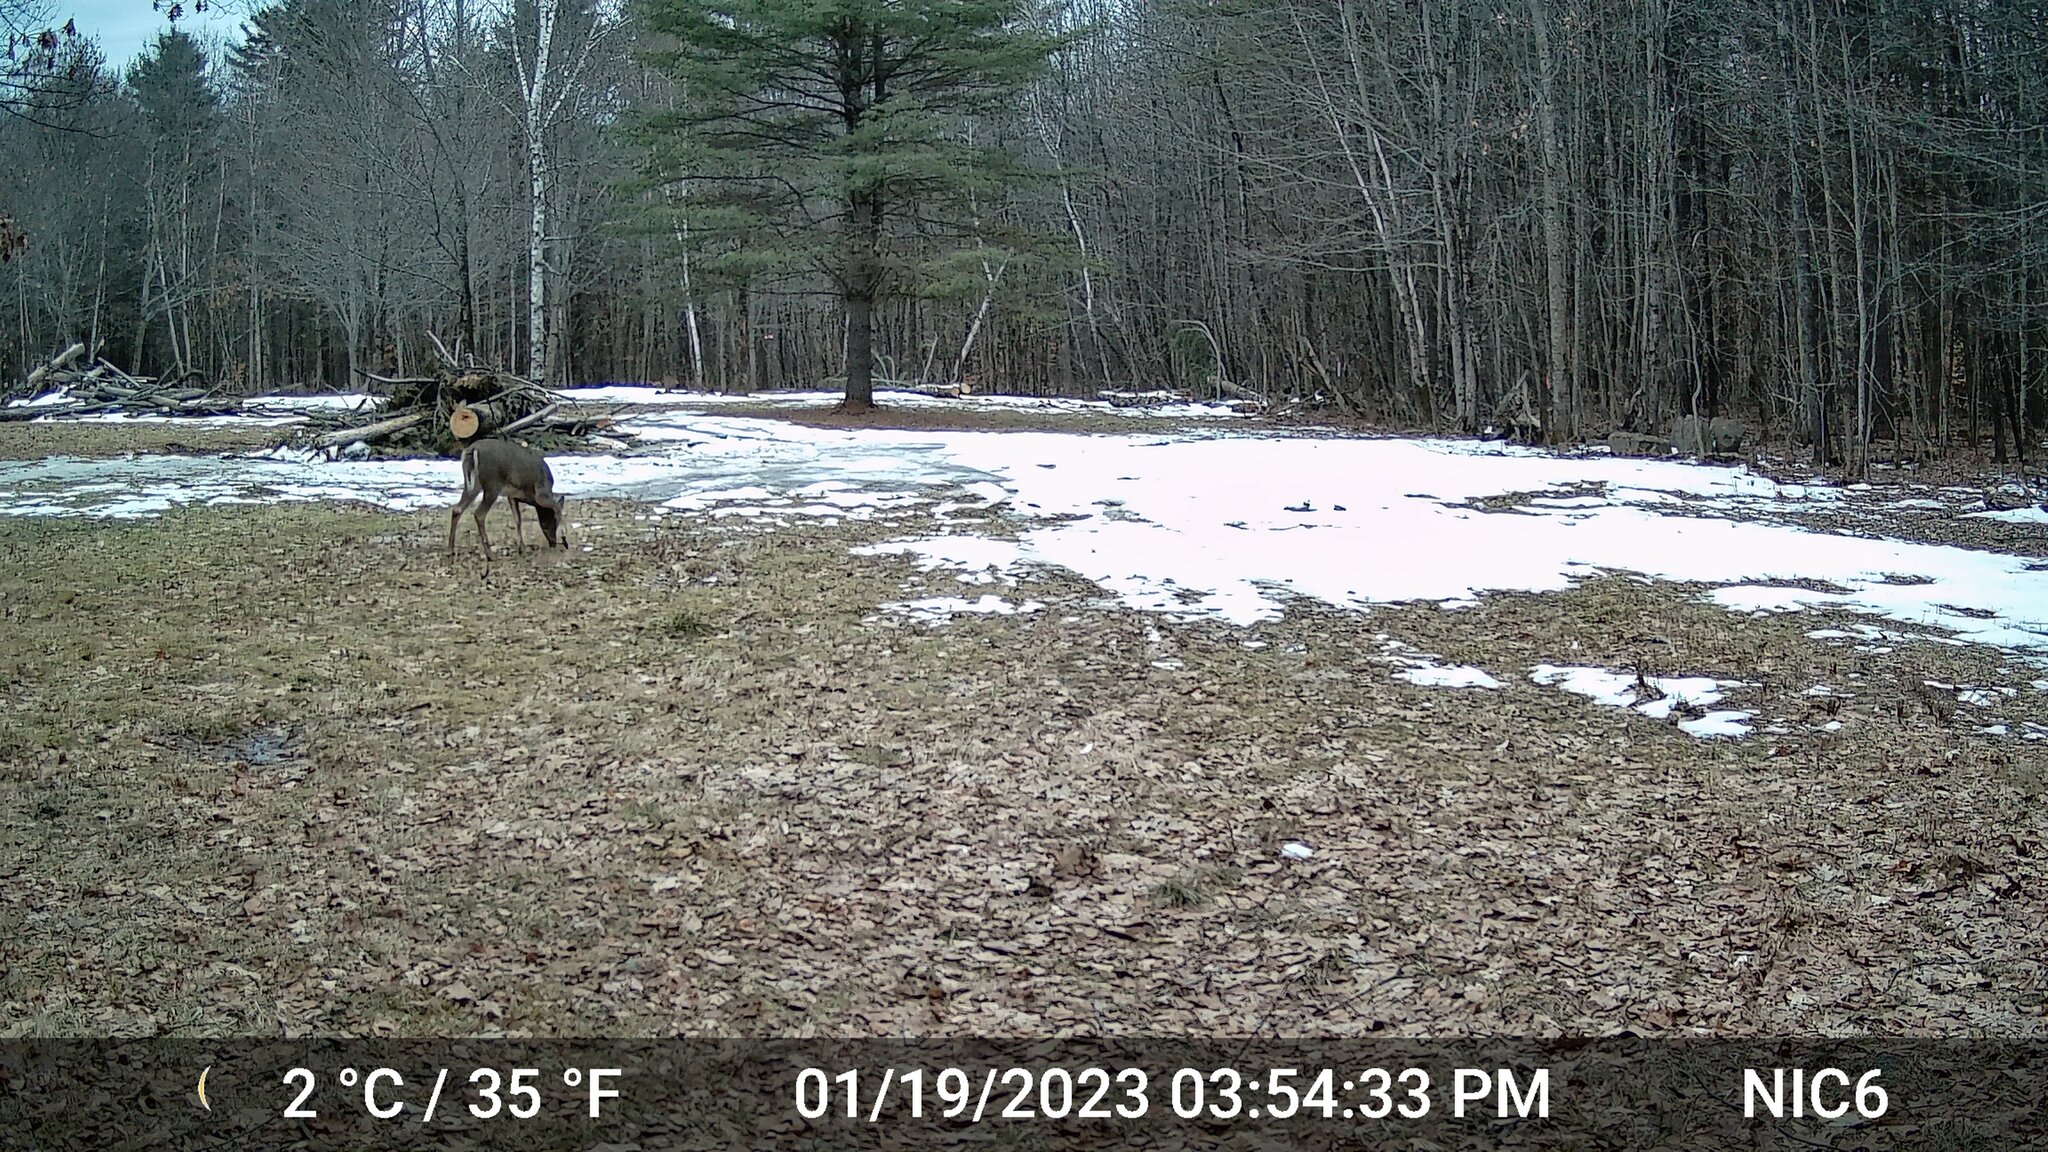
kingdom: Animalia
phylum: Chordata
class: Mammalia
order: Artiodactyla
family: Cervidae
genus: Odocoileus
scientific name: Odocoileus virginianus
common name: White-tailed deer
